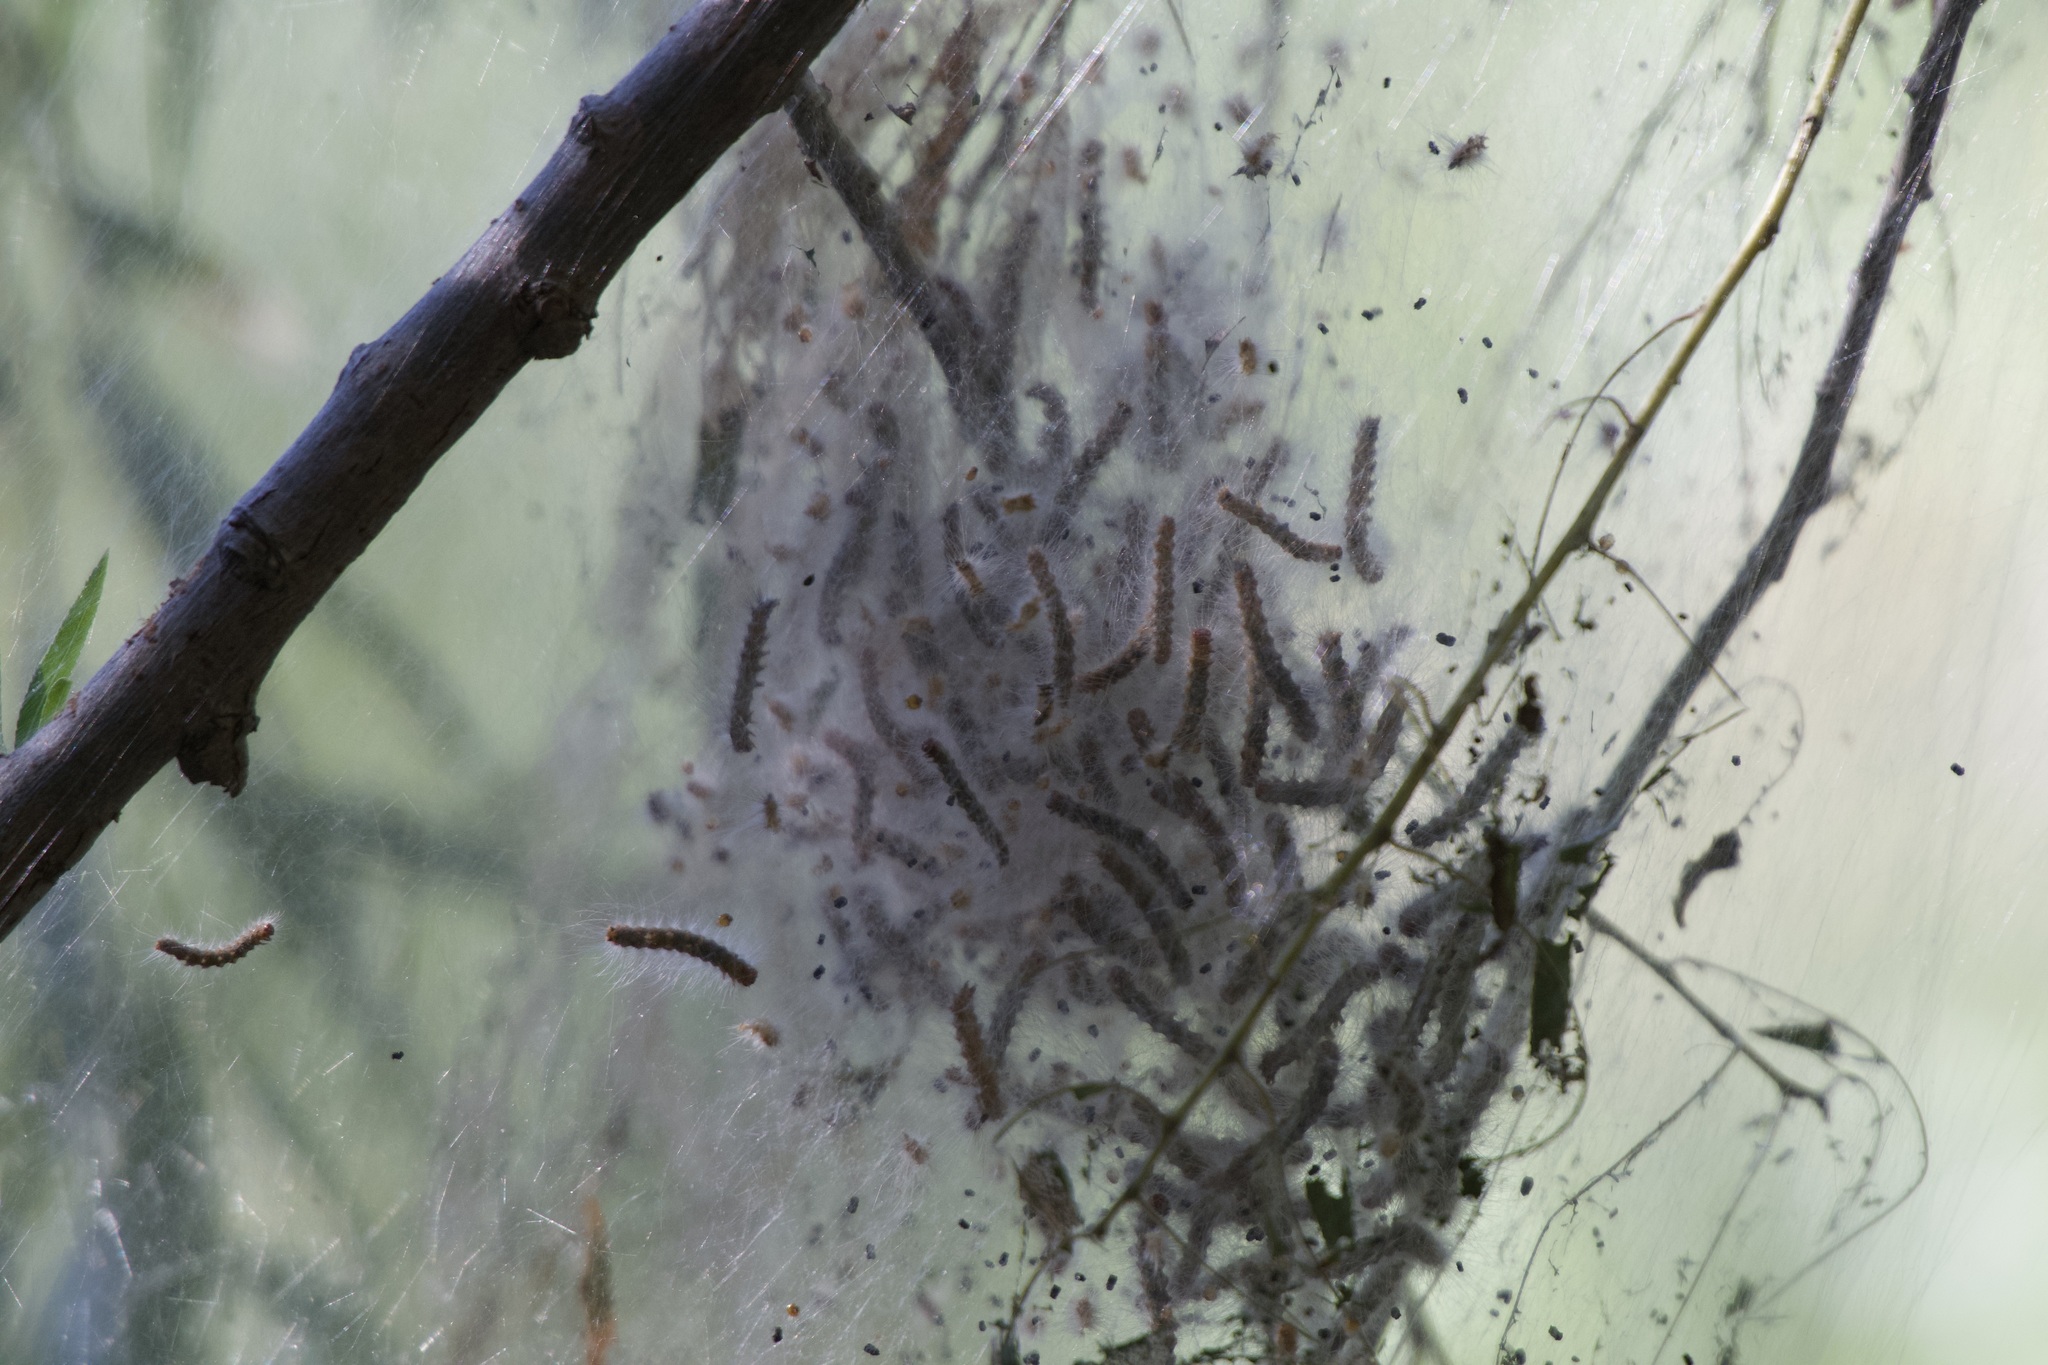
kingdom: Animalia
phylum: Arthropoda
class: Insecta
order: Lepidoptera
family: Erebidae
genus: Hyphantria
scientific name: Hyphantria cunea
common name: American white moth
